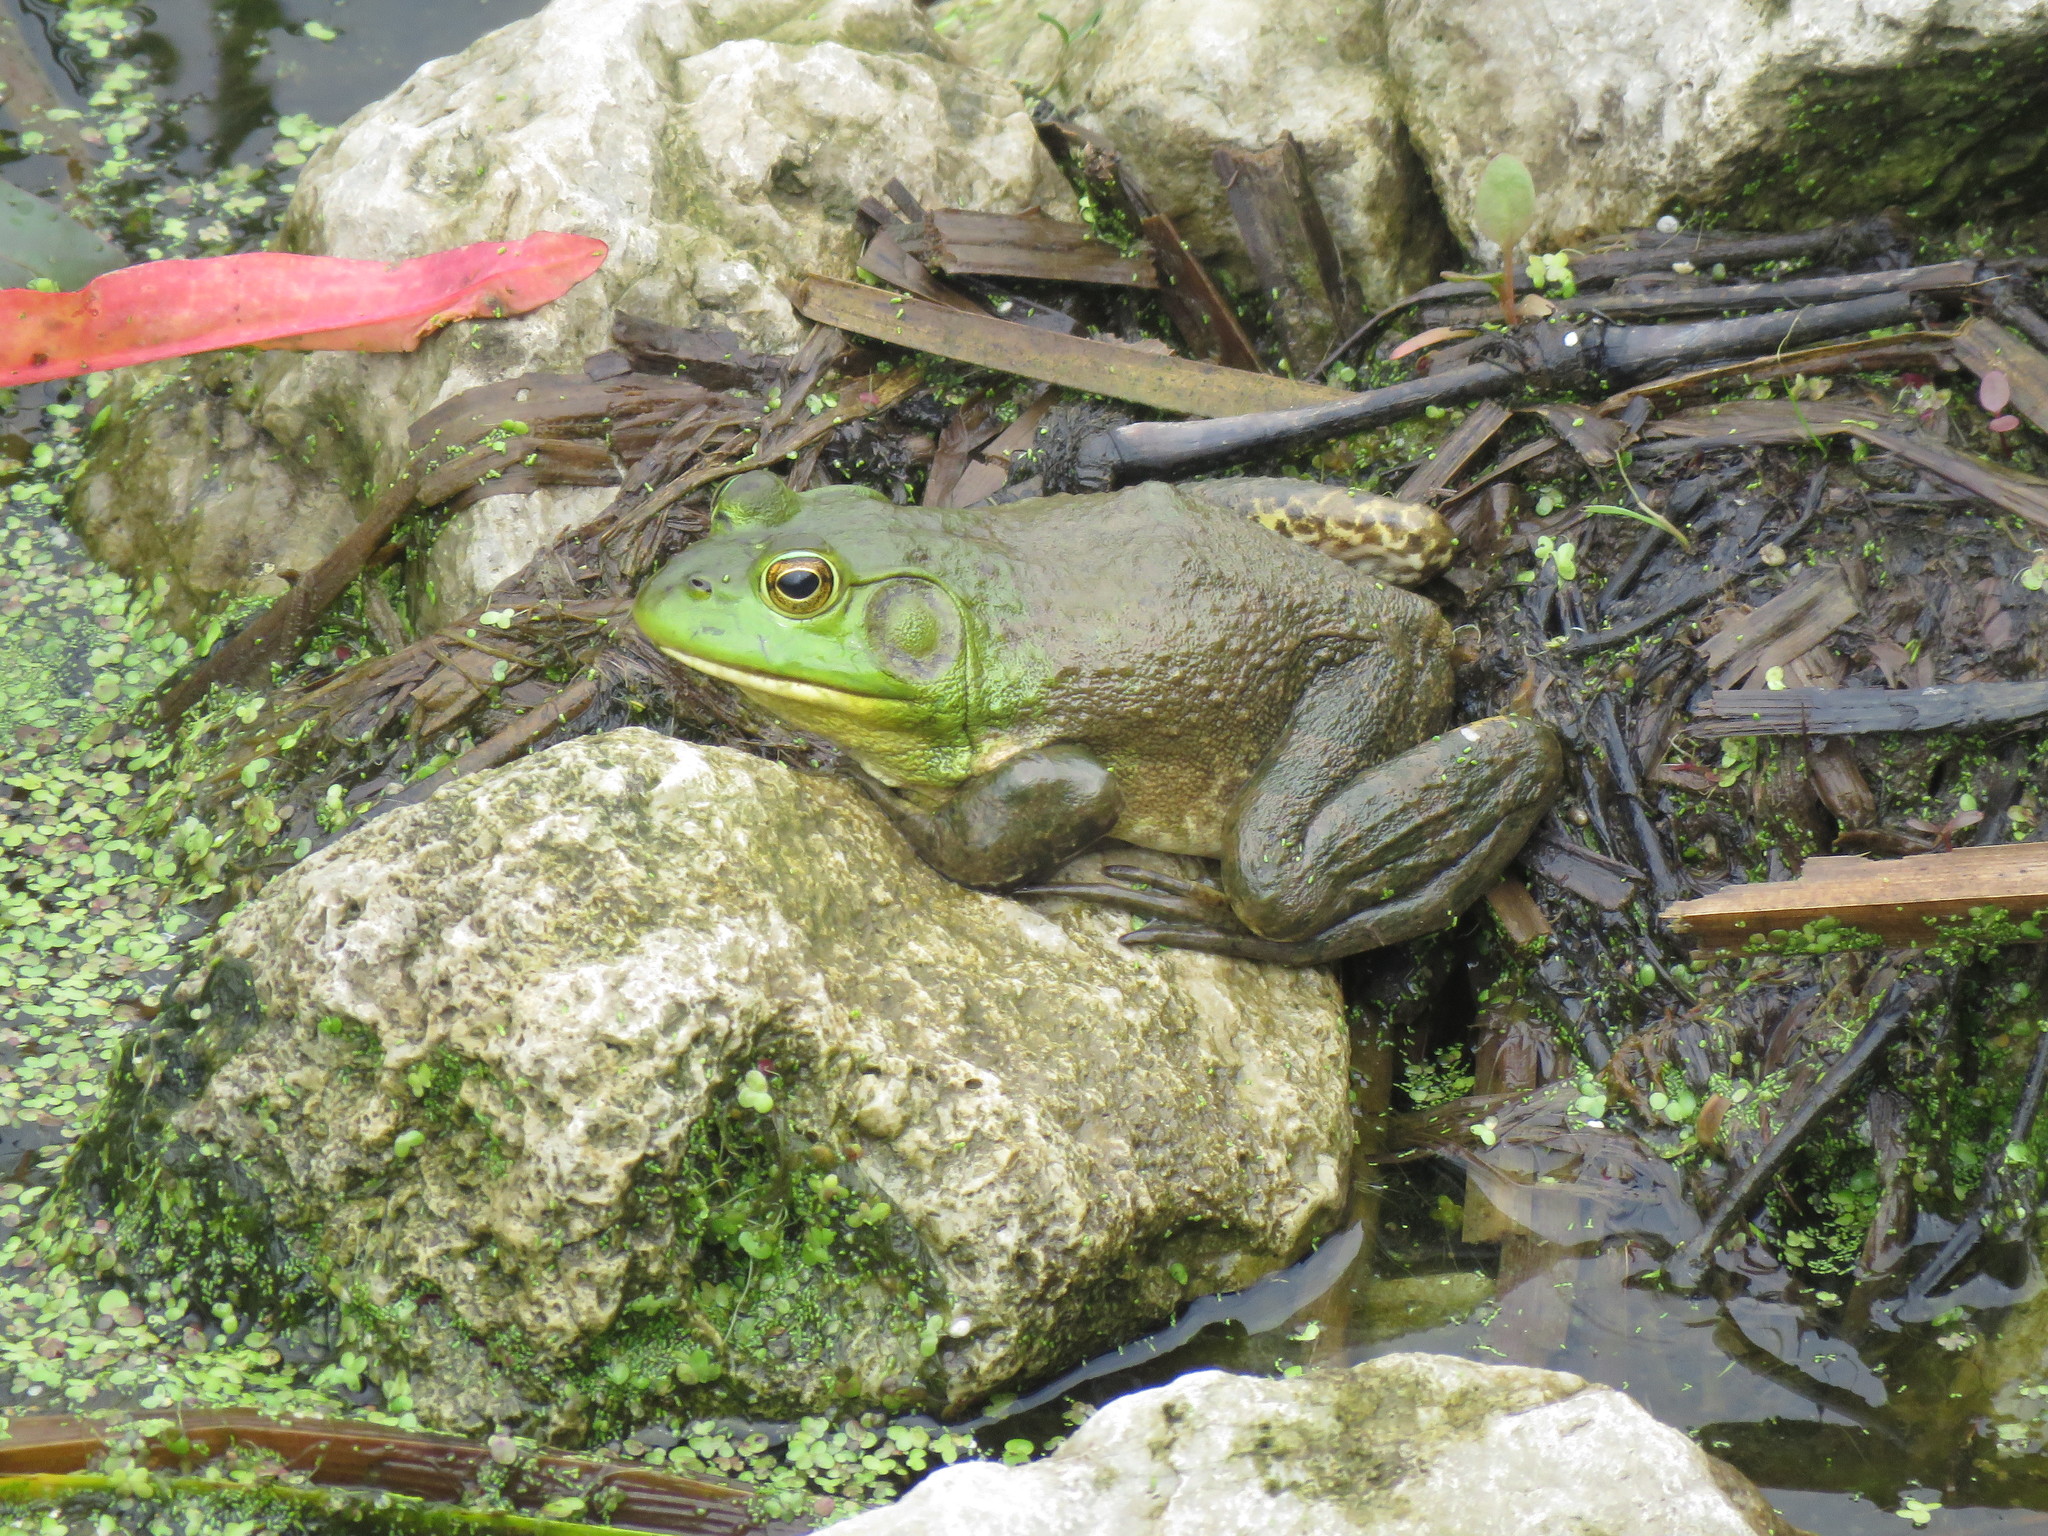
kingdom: Animalia
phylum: Chordata
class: Amphibia
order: Anura
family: Ranidae
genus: Lithobates
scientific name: Lithobates catesbeianus
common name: American bullfrog
